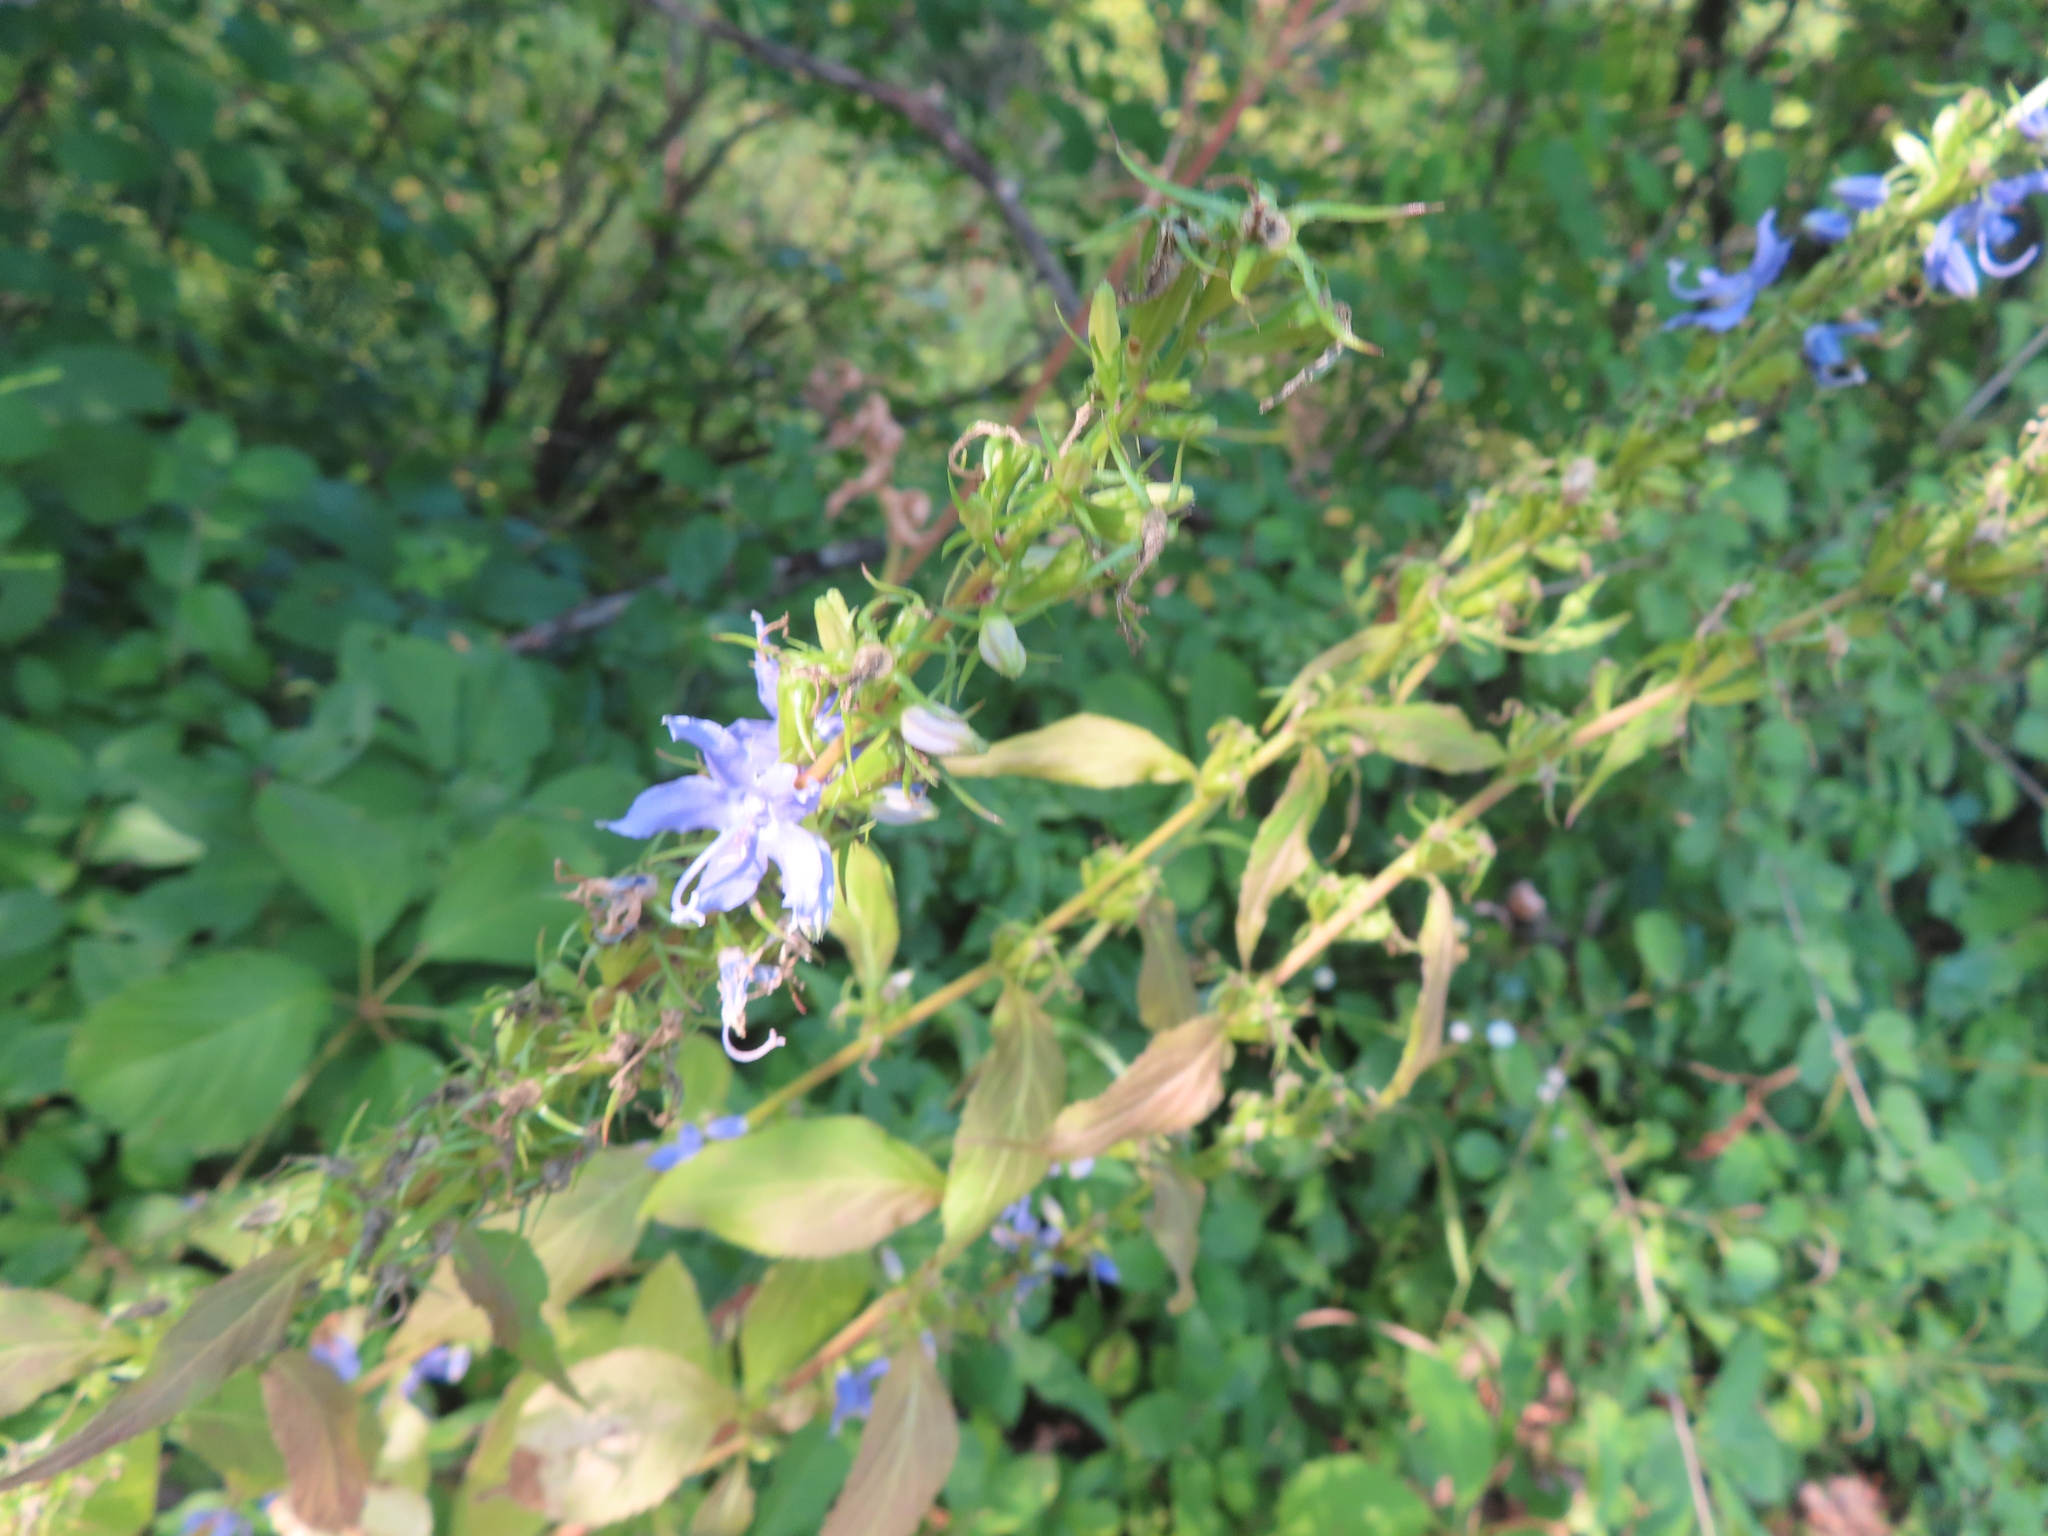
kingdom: Plantae
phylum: Tracheophyta
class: Magnoliopsida
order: Asterales
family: Campanulaceae
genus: Campanulastrum
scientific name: Campanulastrum americanum
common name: American bellflower
